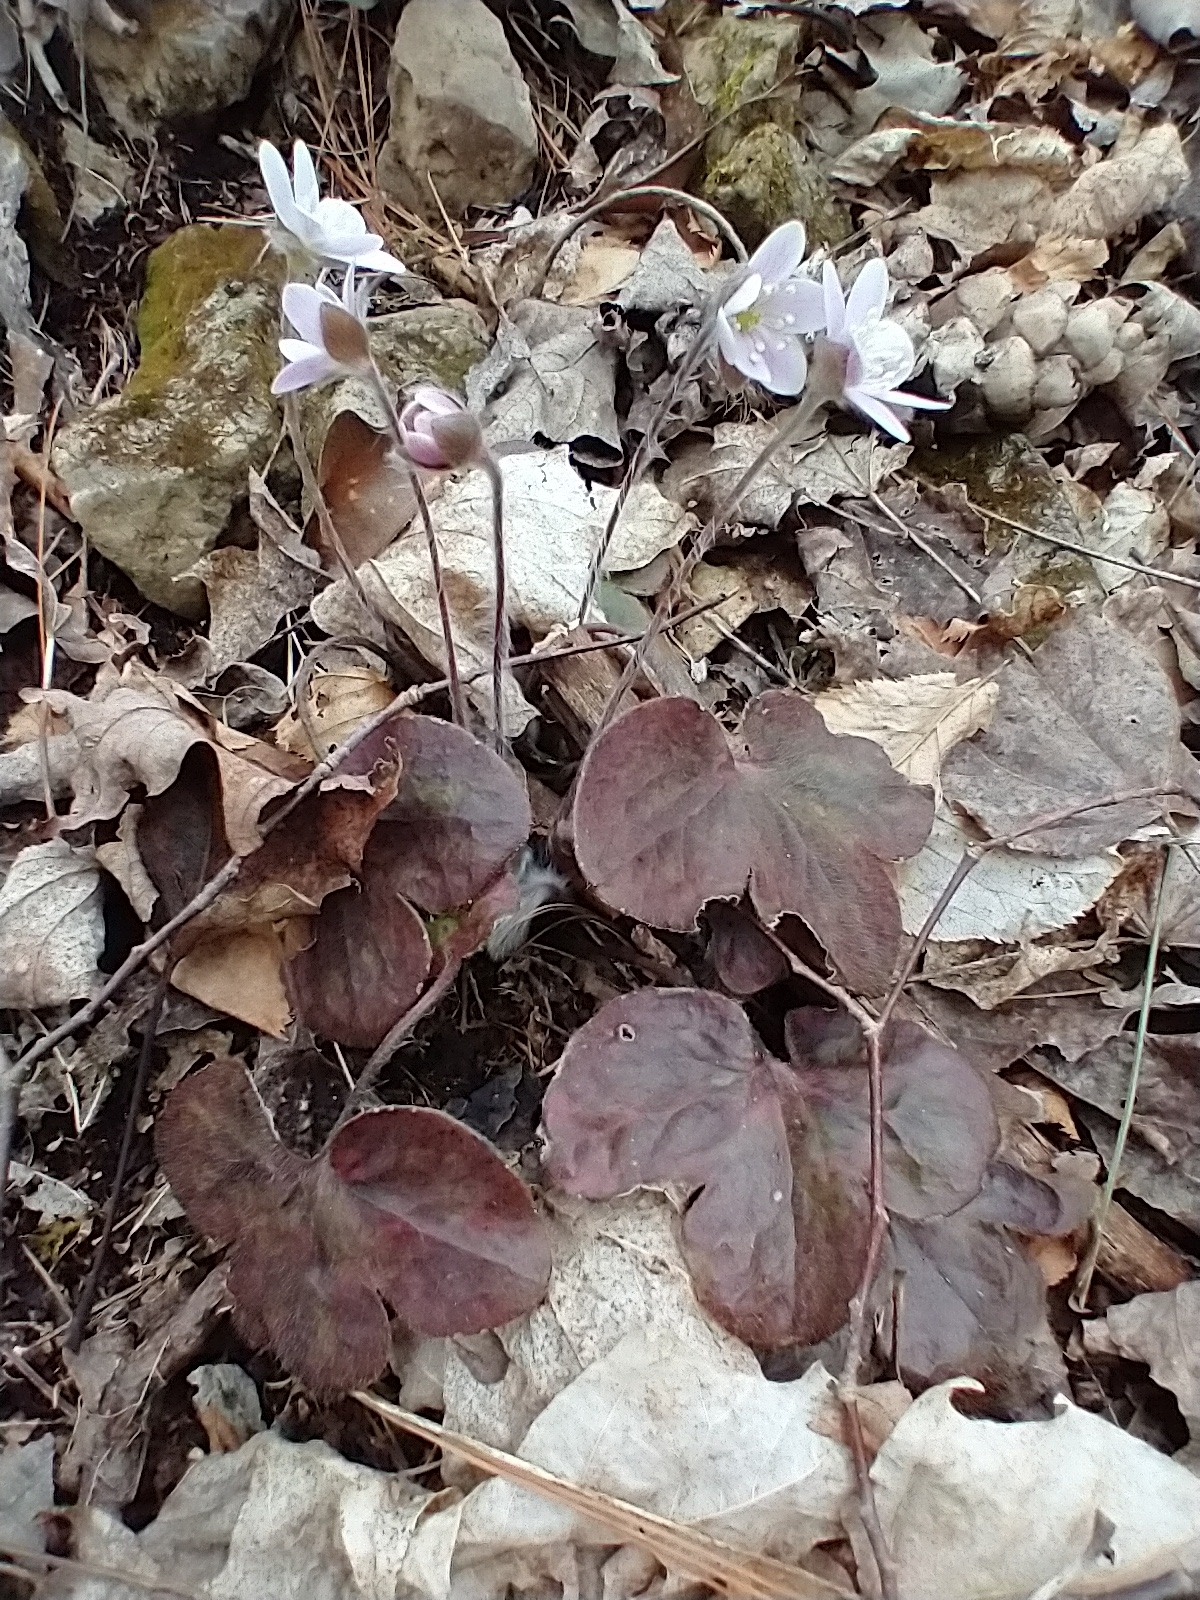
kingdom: Plantae
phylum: Tracheophyta
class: Magnoliopsida
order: Ranunculales
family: Ranunculaceae
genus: Hepatica
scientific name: Hepatica americana
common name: American hepatica
